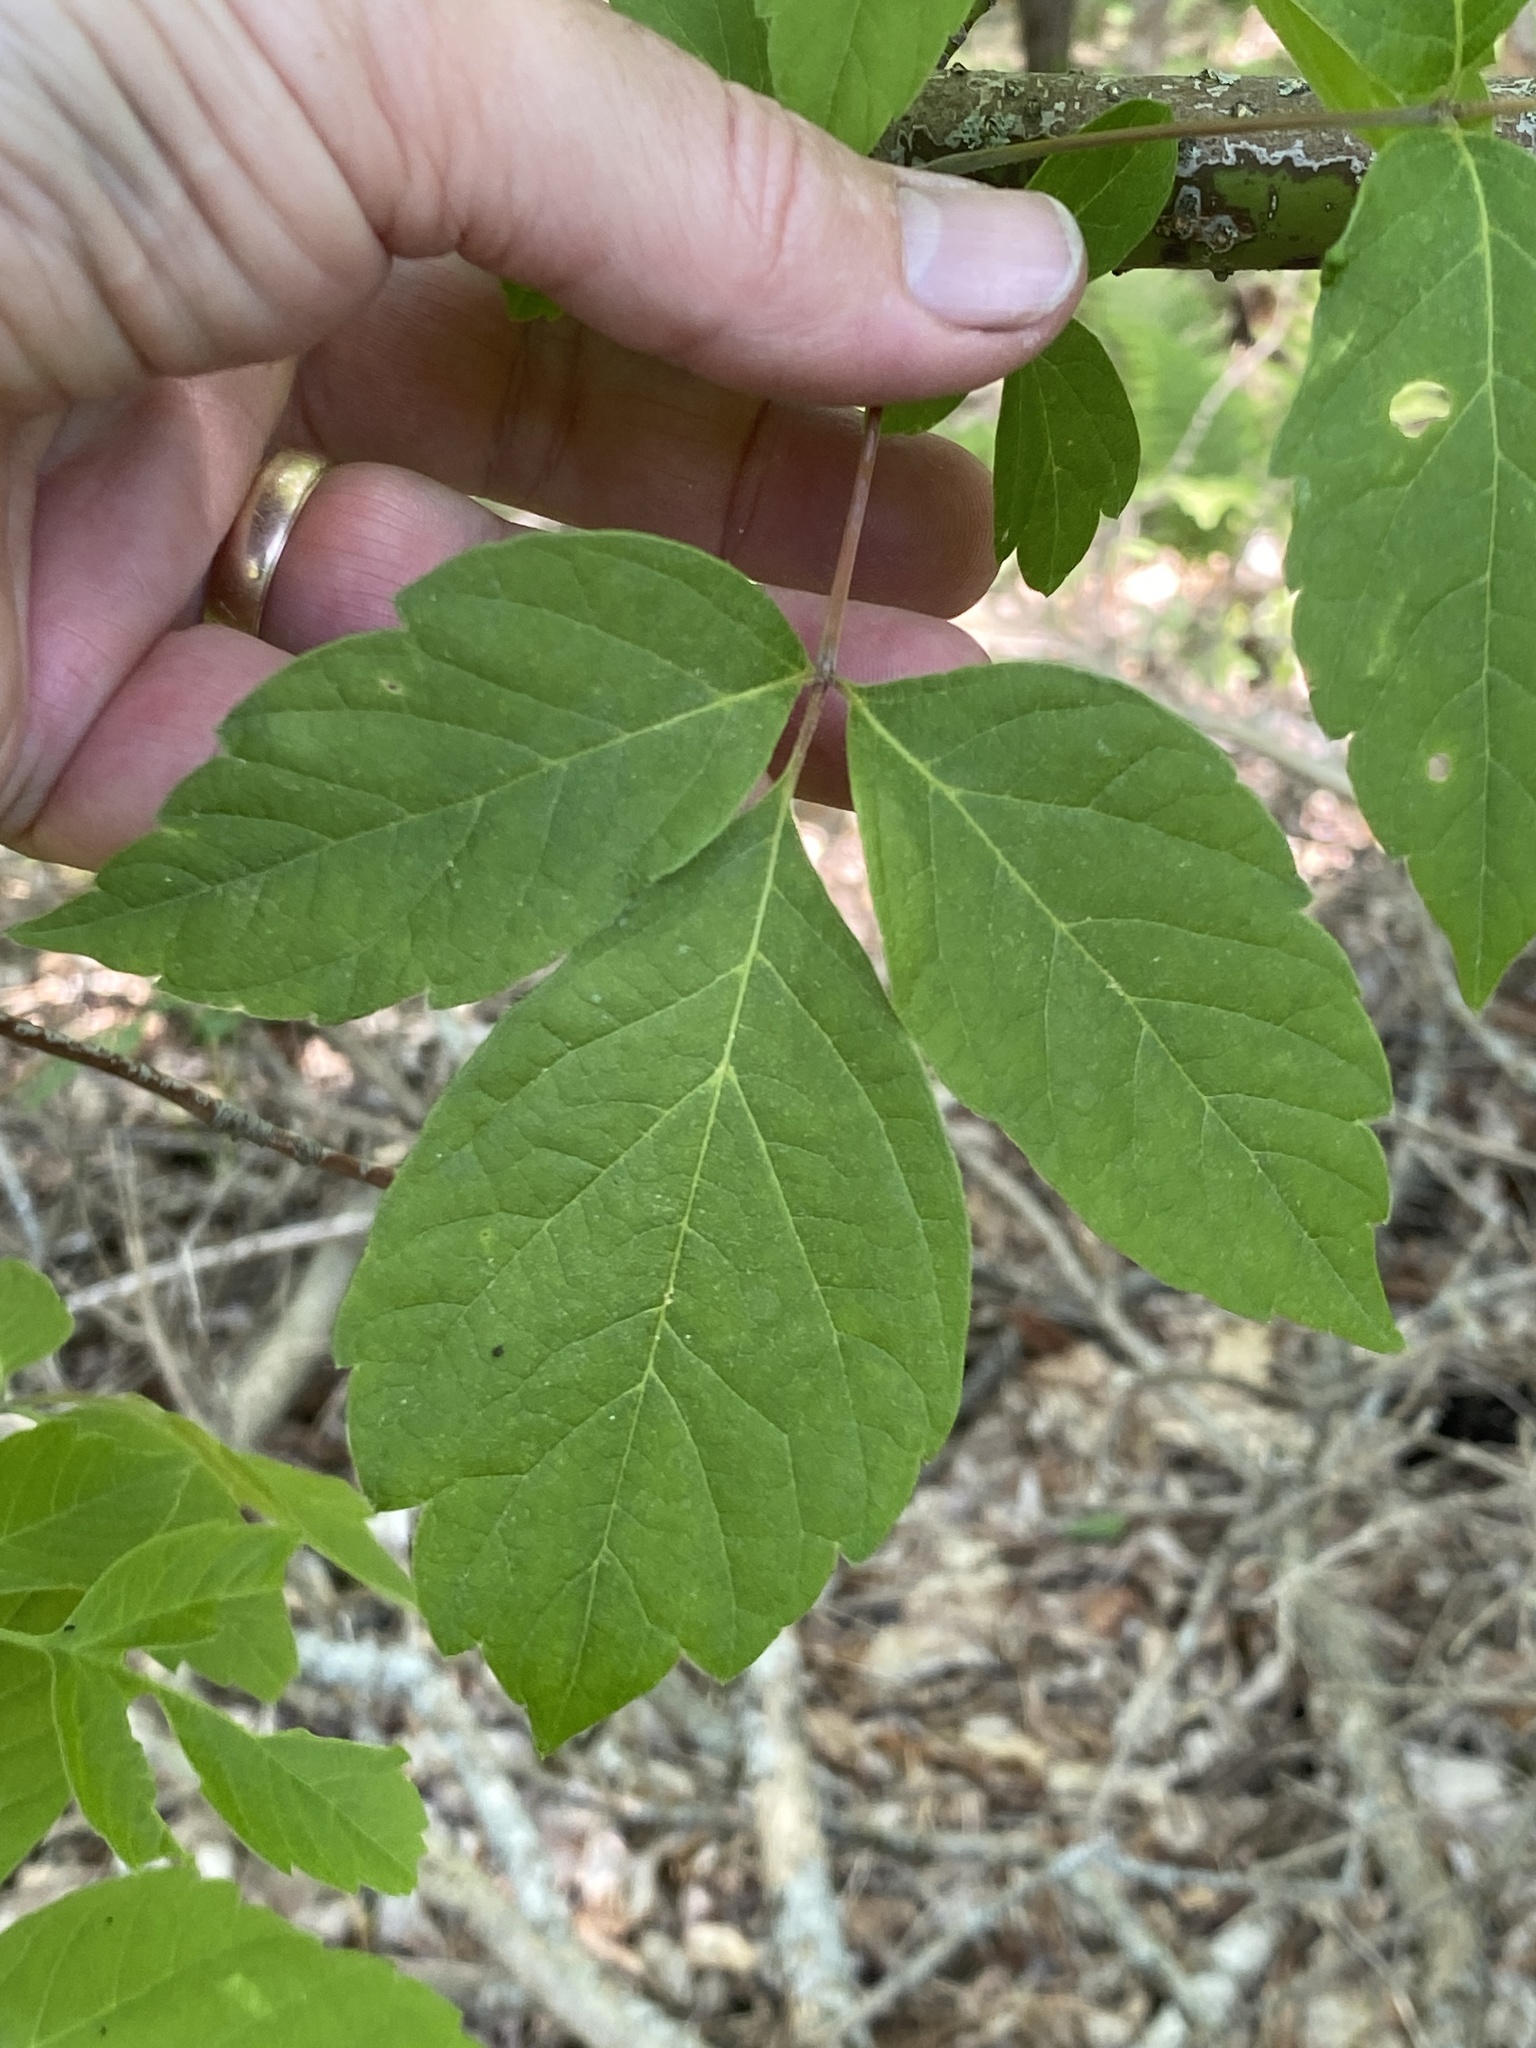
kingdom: Plantae
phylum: Tracheophyta
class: Magnoliopsida
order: Sapindales
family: Sapindaceae
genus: Acer
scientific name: Acer negundo
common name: Ashleaf maple
